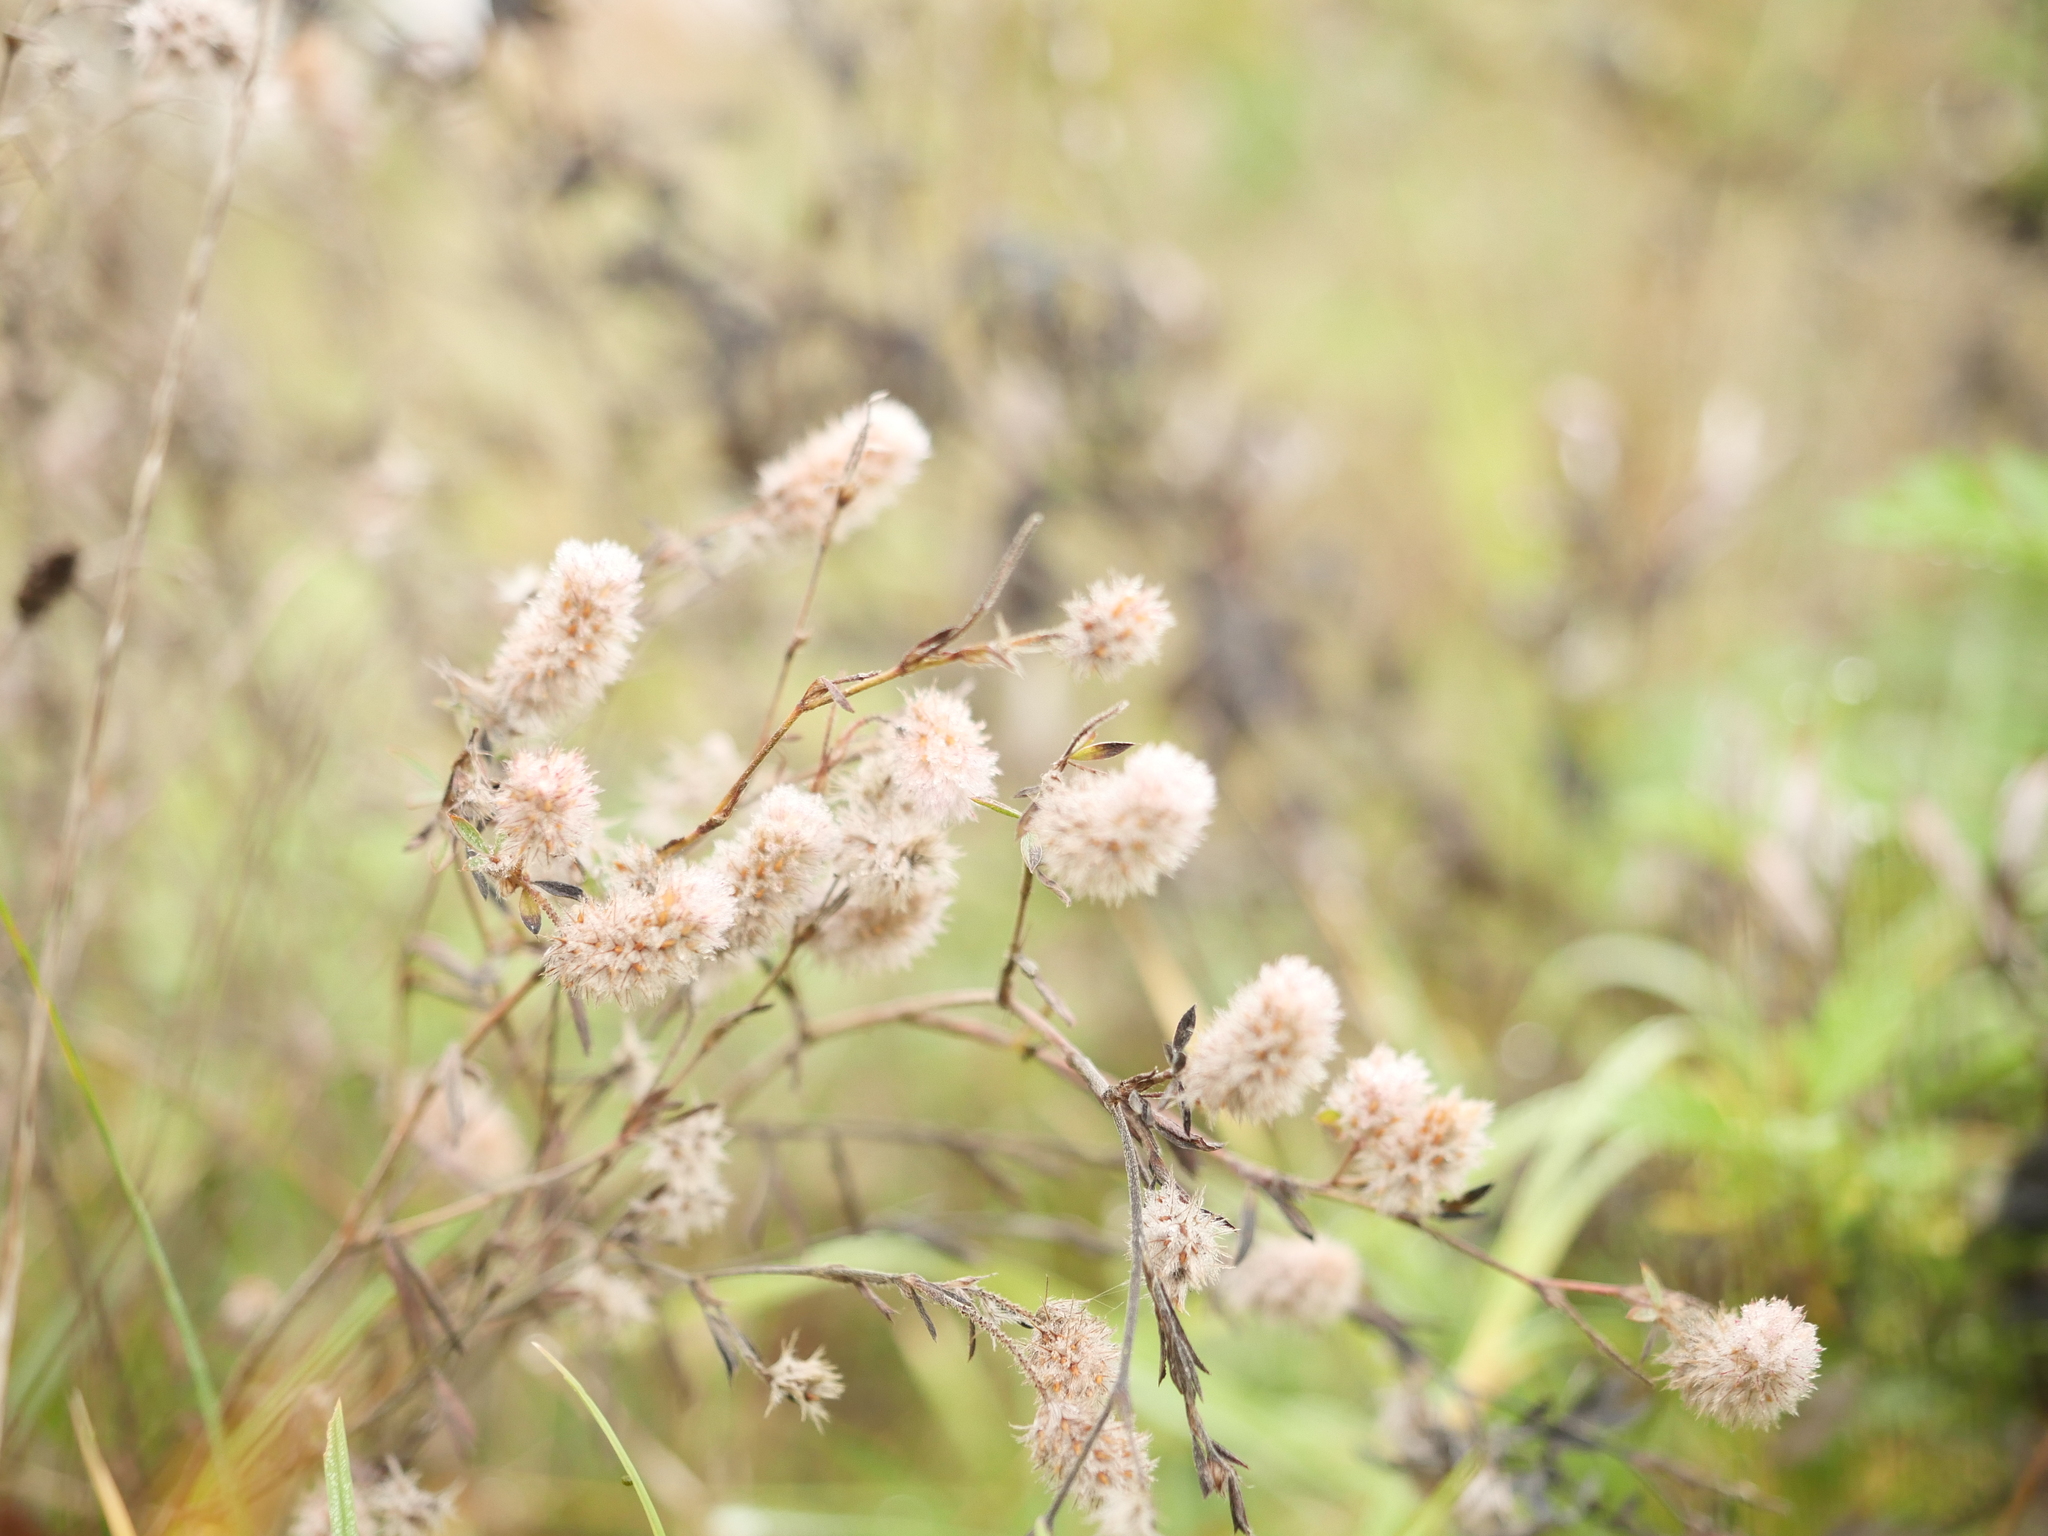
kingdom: Plantae
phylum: Tracheophyta
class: Magnoliopsida
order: Fabales
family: Fabaceae
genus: Trifolium
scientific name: Trifolium arvense
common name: Hare's-foot clover
